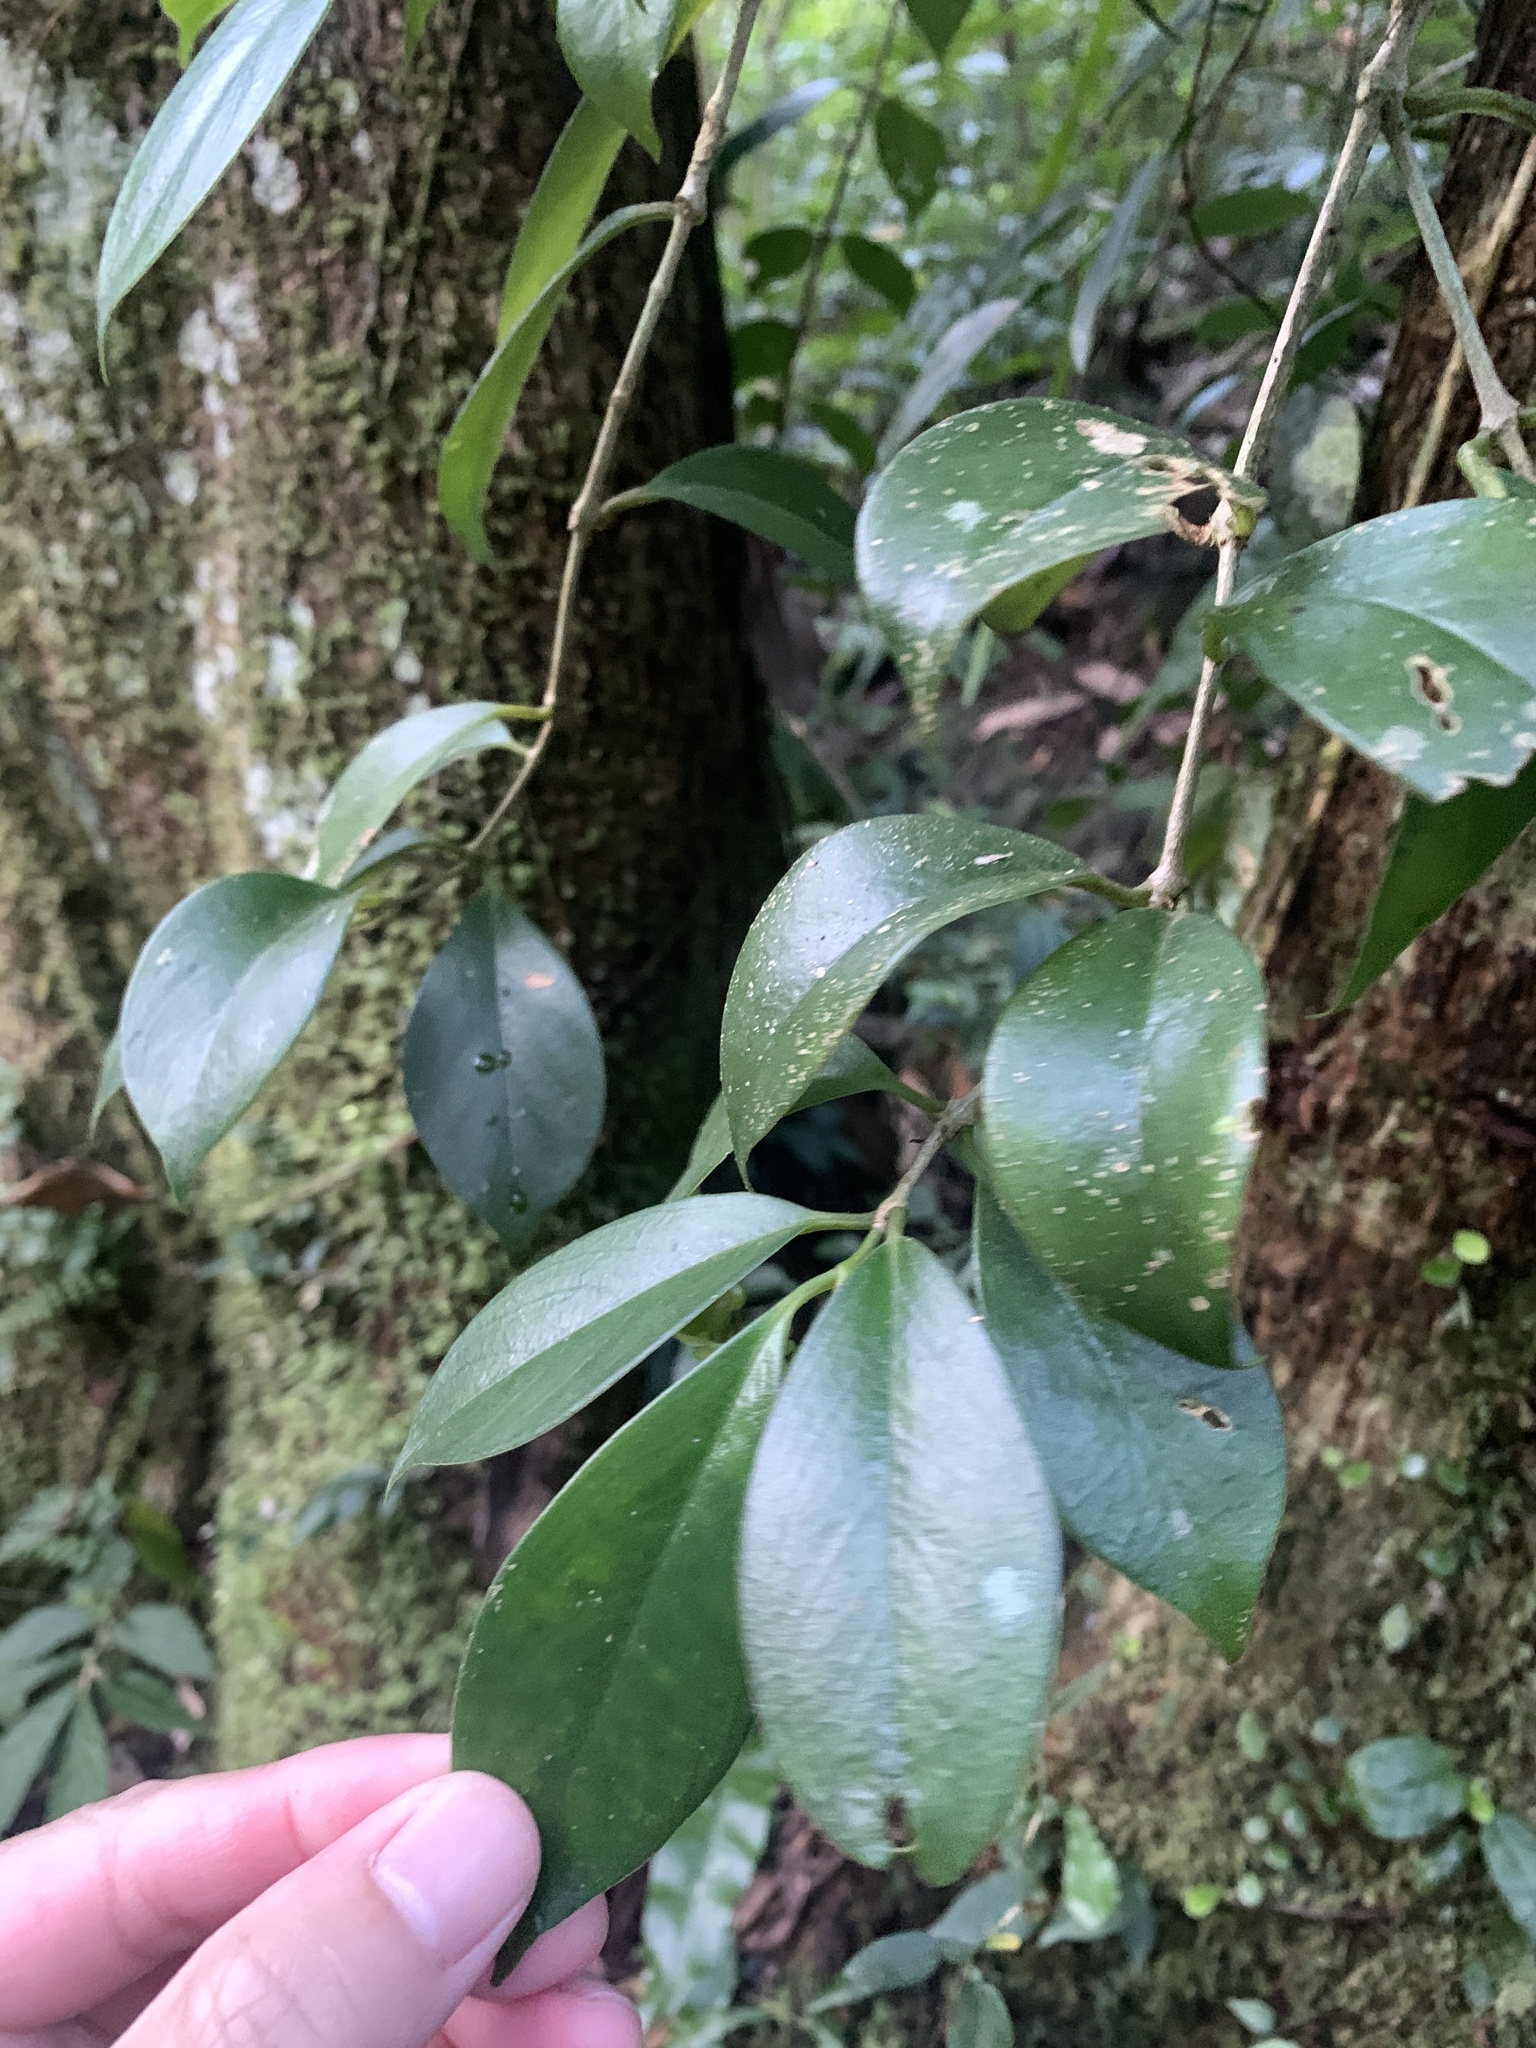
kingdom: Plantae
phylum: Tracheophyta
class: Magnoliopsida
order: Lamiales
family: Gesneriaceae
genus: Aeschynanthus
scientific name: Aeschynanthus acuminatus
